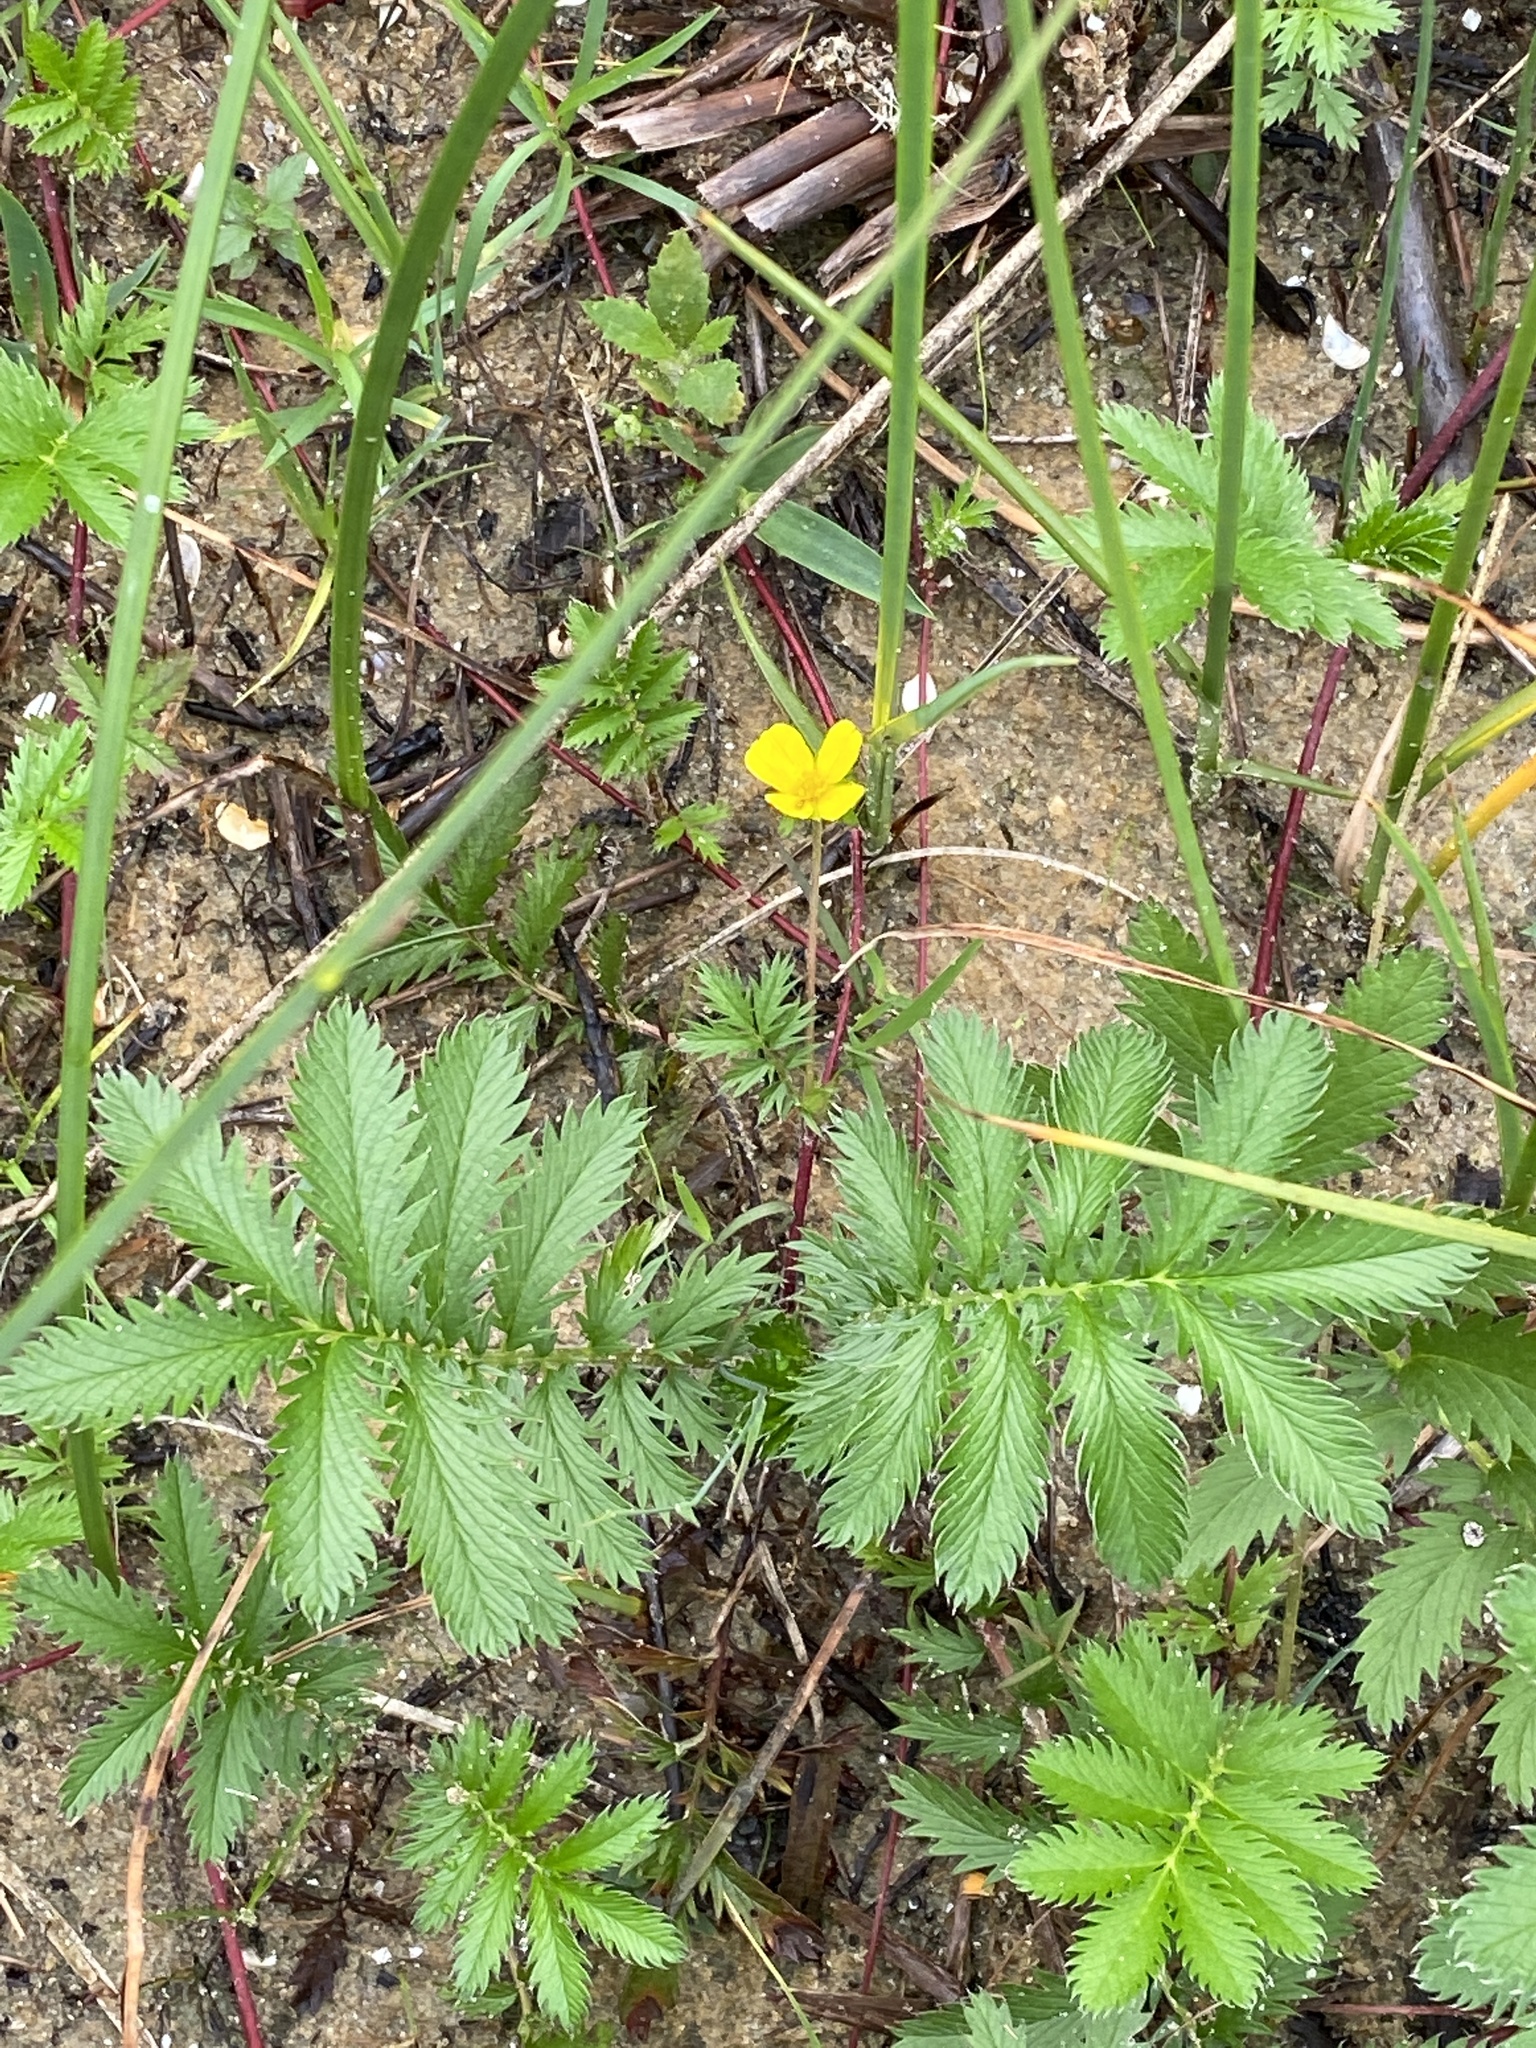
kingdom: Plantae
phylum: Tracheophyta
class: Magnoliopsida
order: Rosales
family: Rosaceae
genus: Argentina
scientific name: Argentina anserina
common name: Common silverweed
